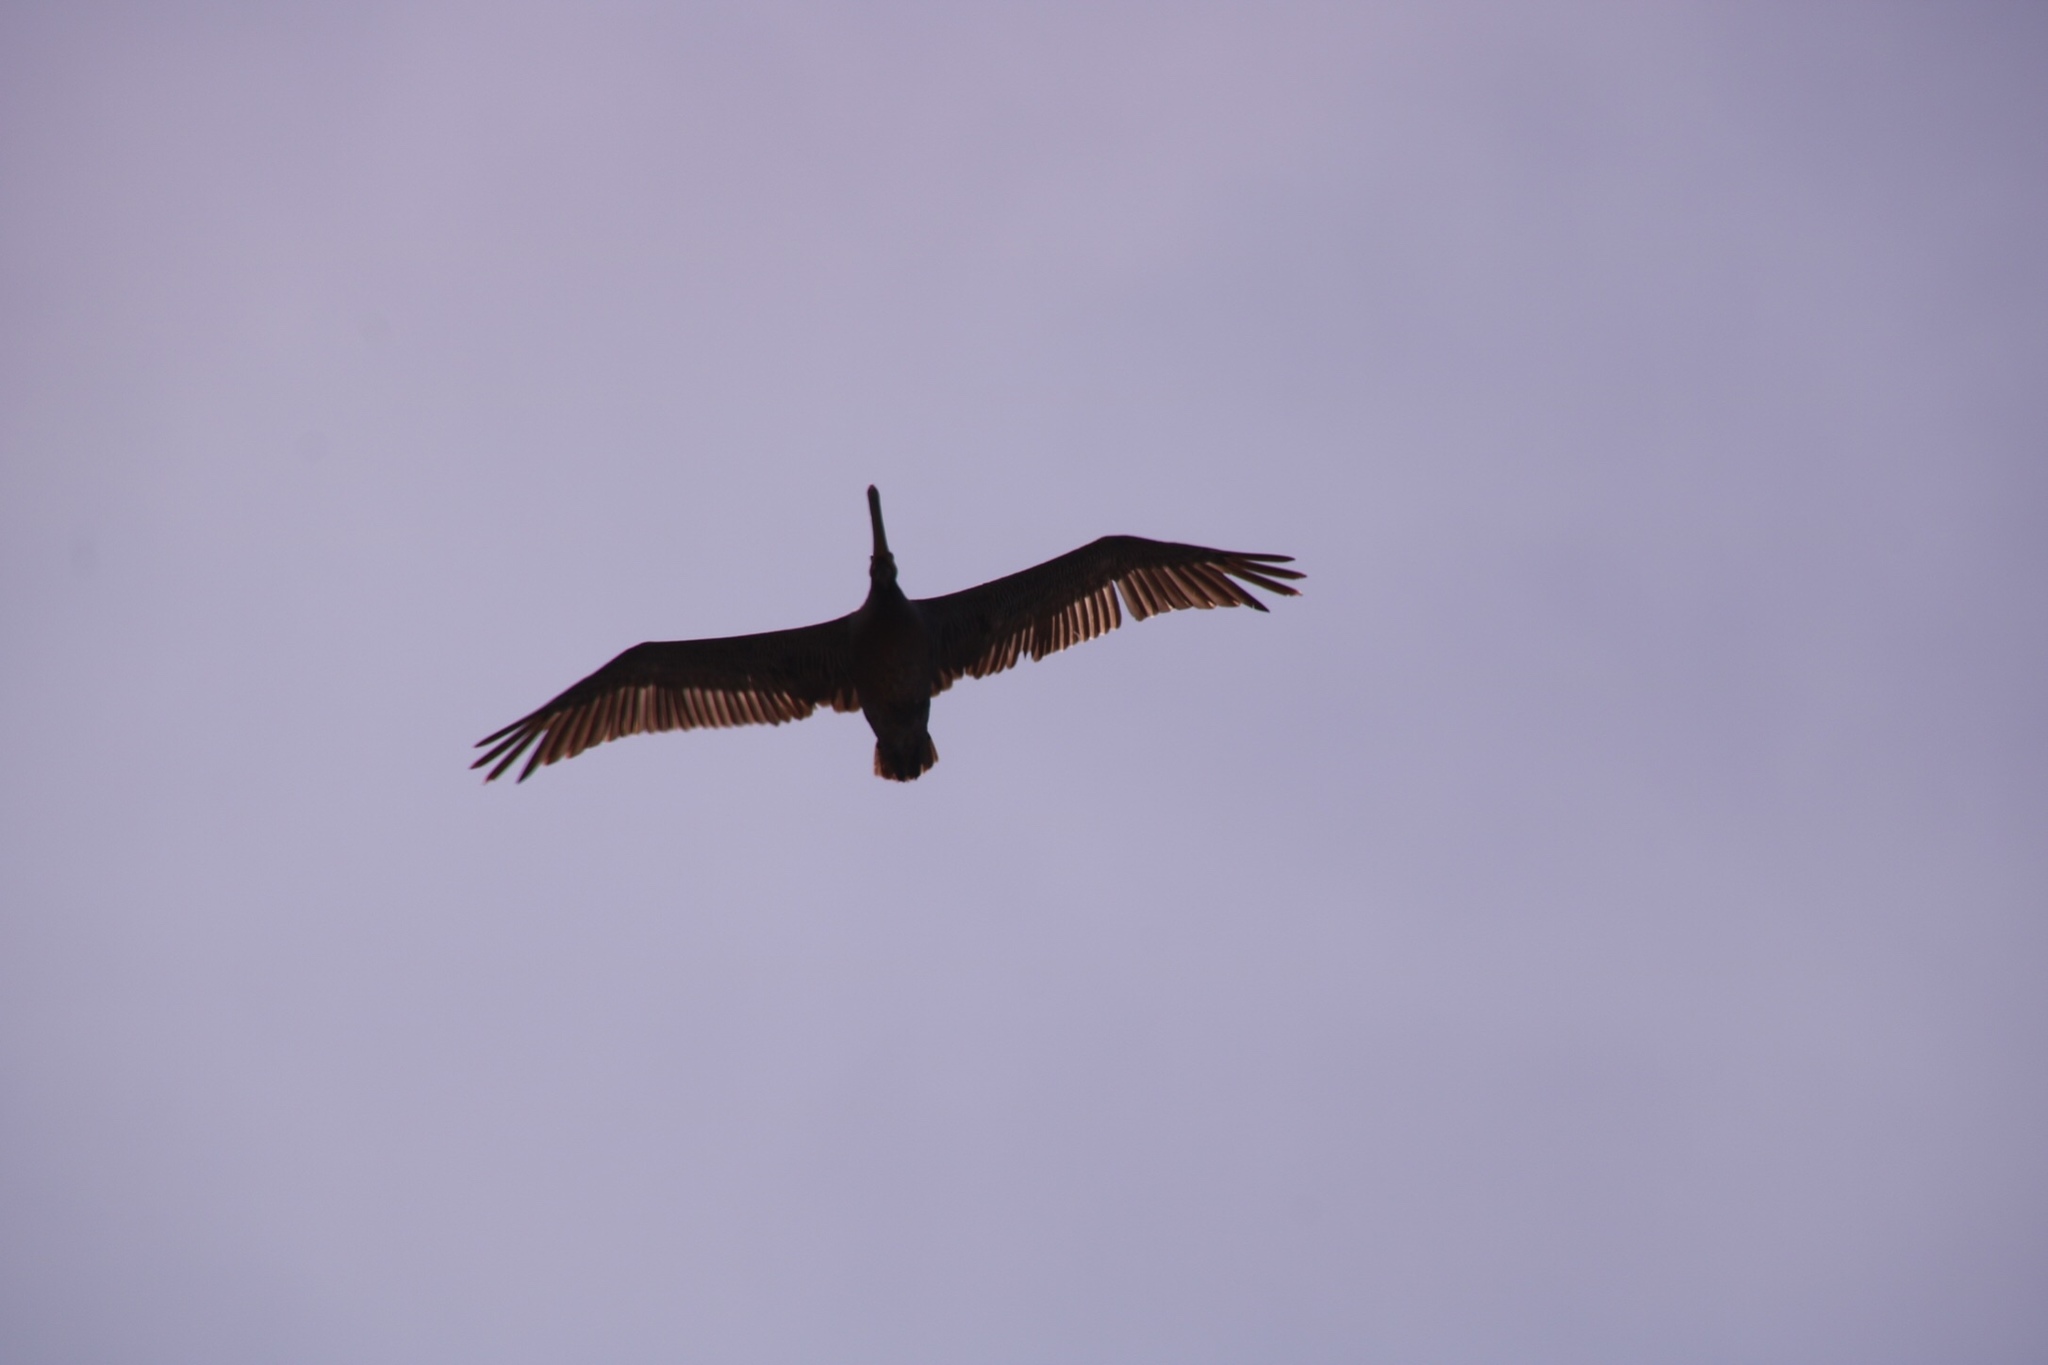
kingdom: Animalia
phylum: Chordata
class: Aves
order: Pelecaniformes
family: Pelecanidae
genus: Pelecanus
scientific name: Pelecanus occidentalis
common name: Brown pelican
